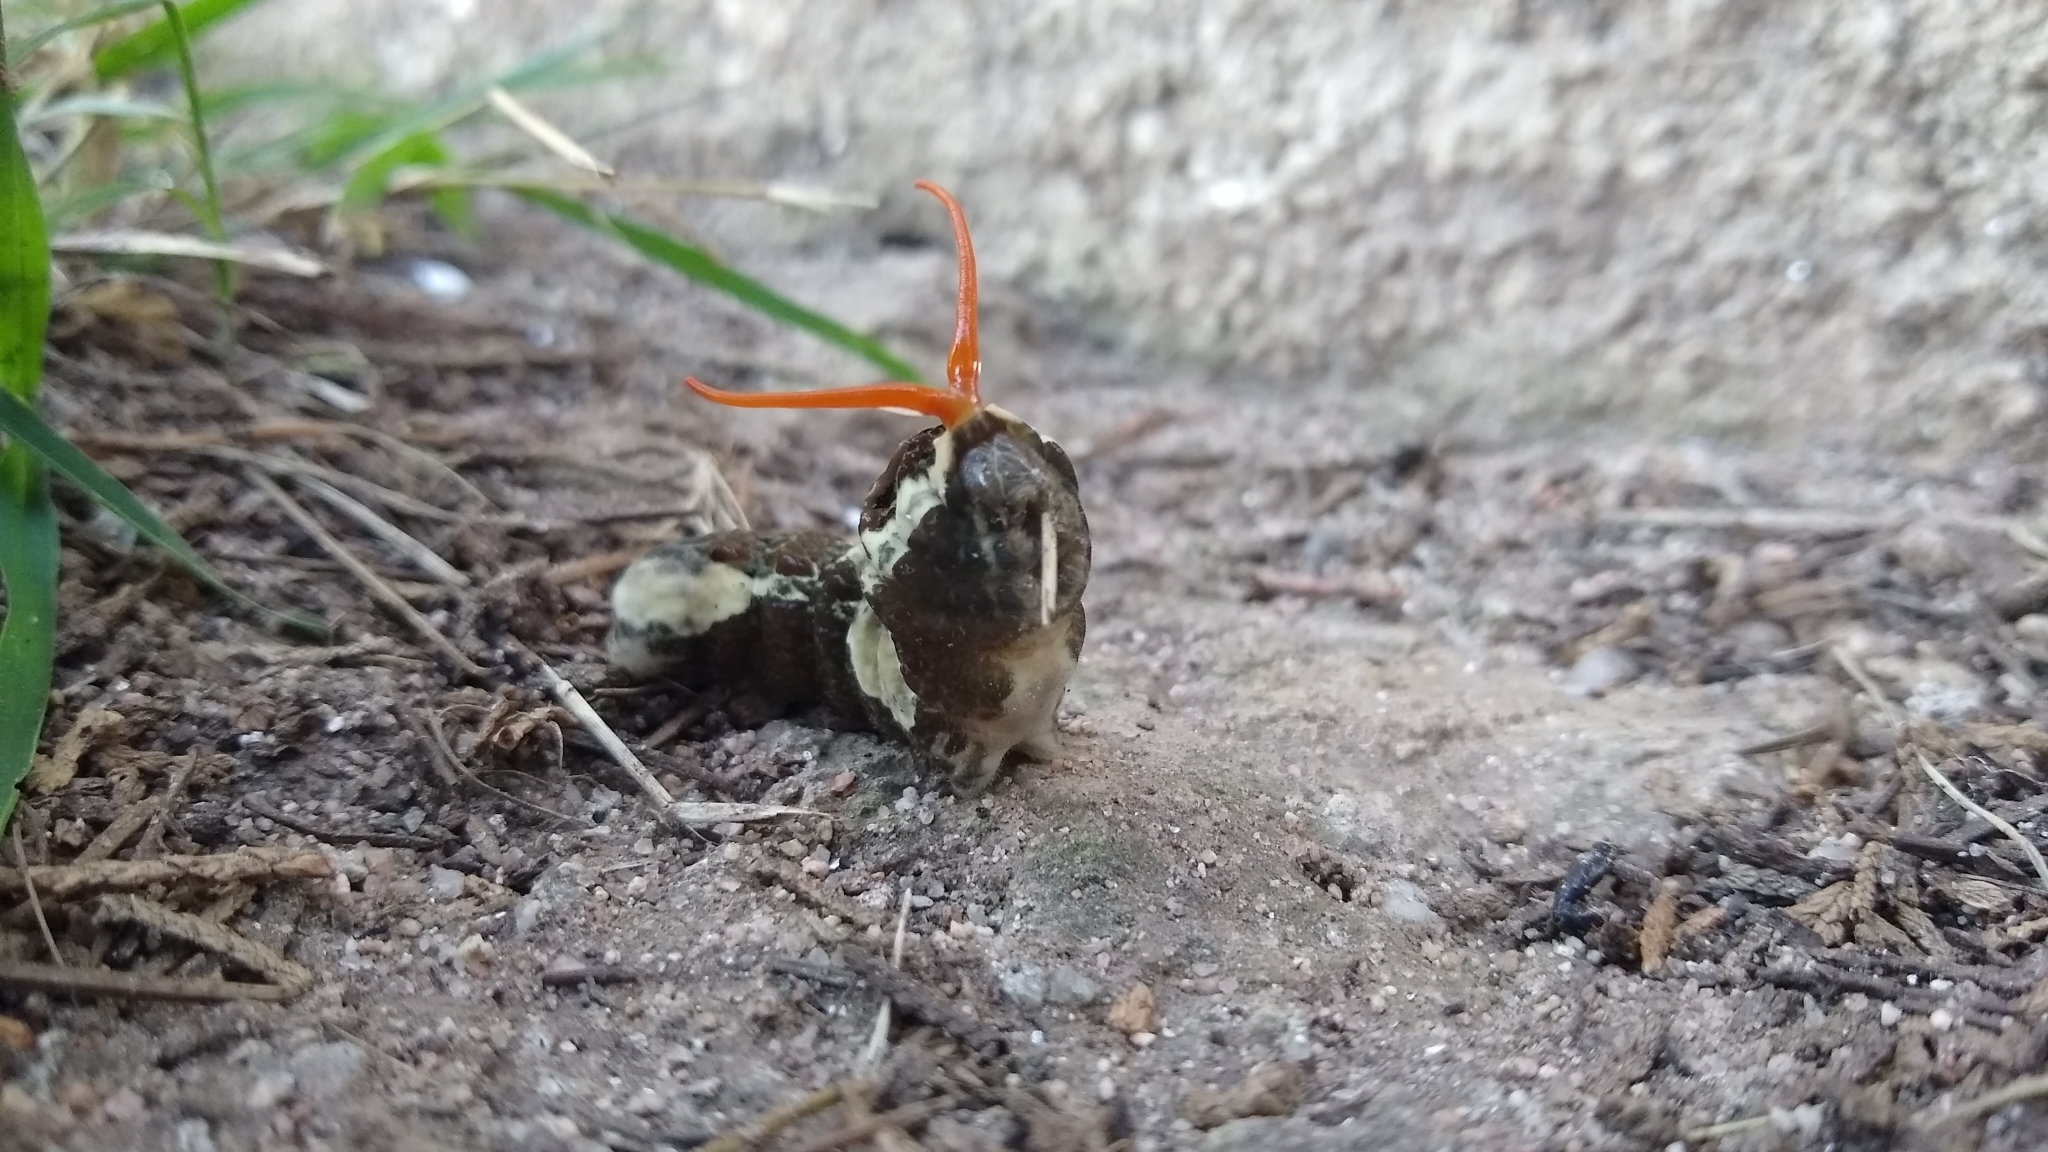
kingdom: Animalia
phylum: Arthropoda
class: Insecta
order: Lepidoptera
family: Papilionidae
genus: Papilio
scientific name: Papilio thoas
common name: King swallowtail
